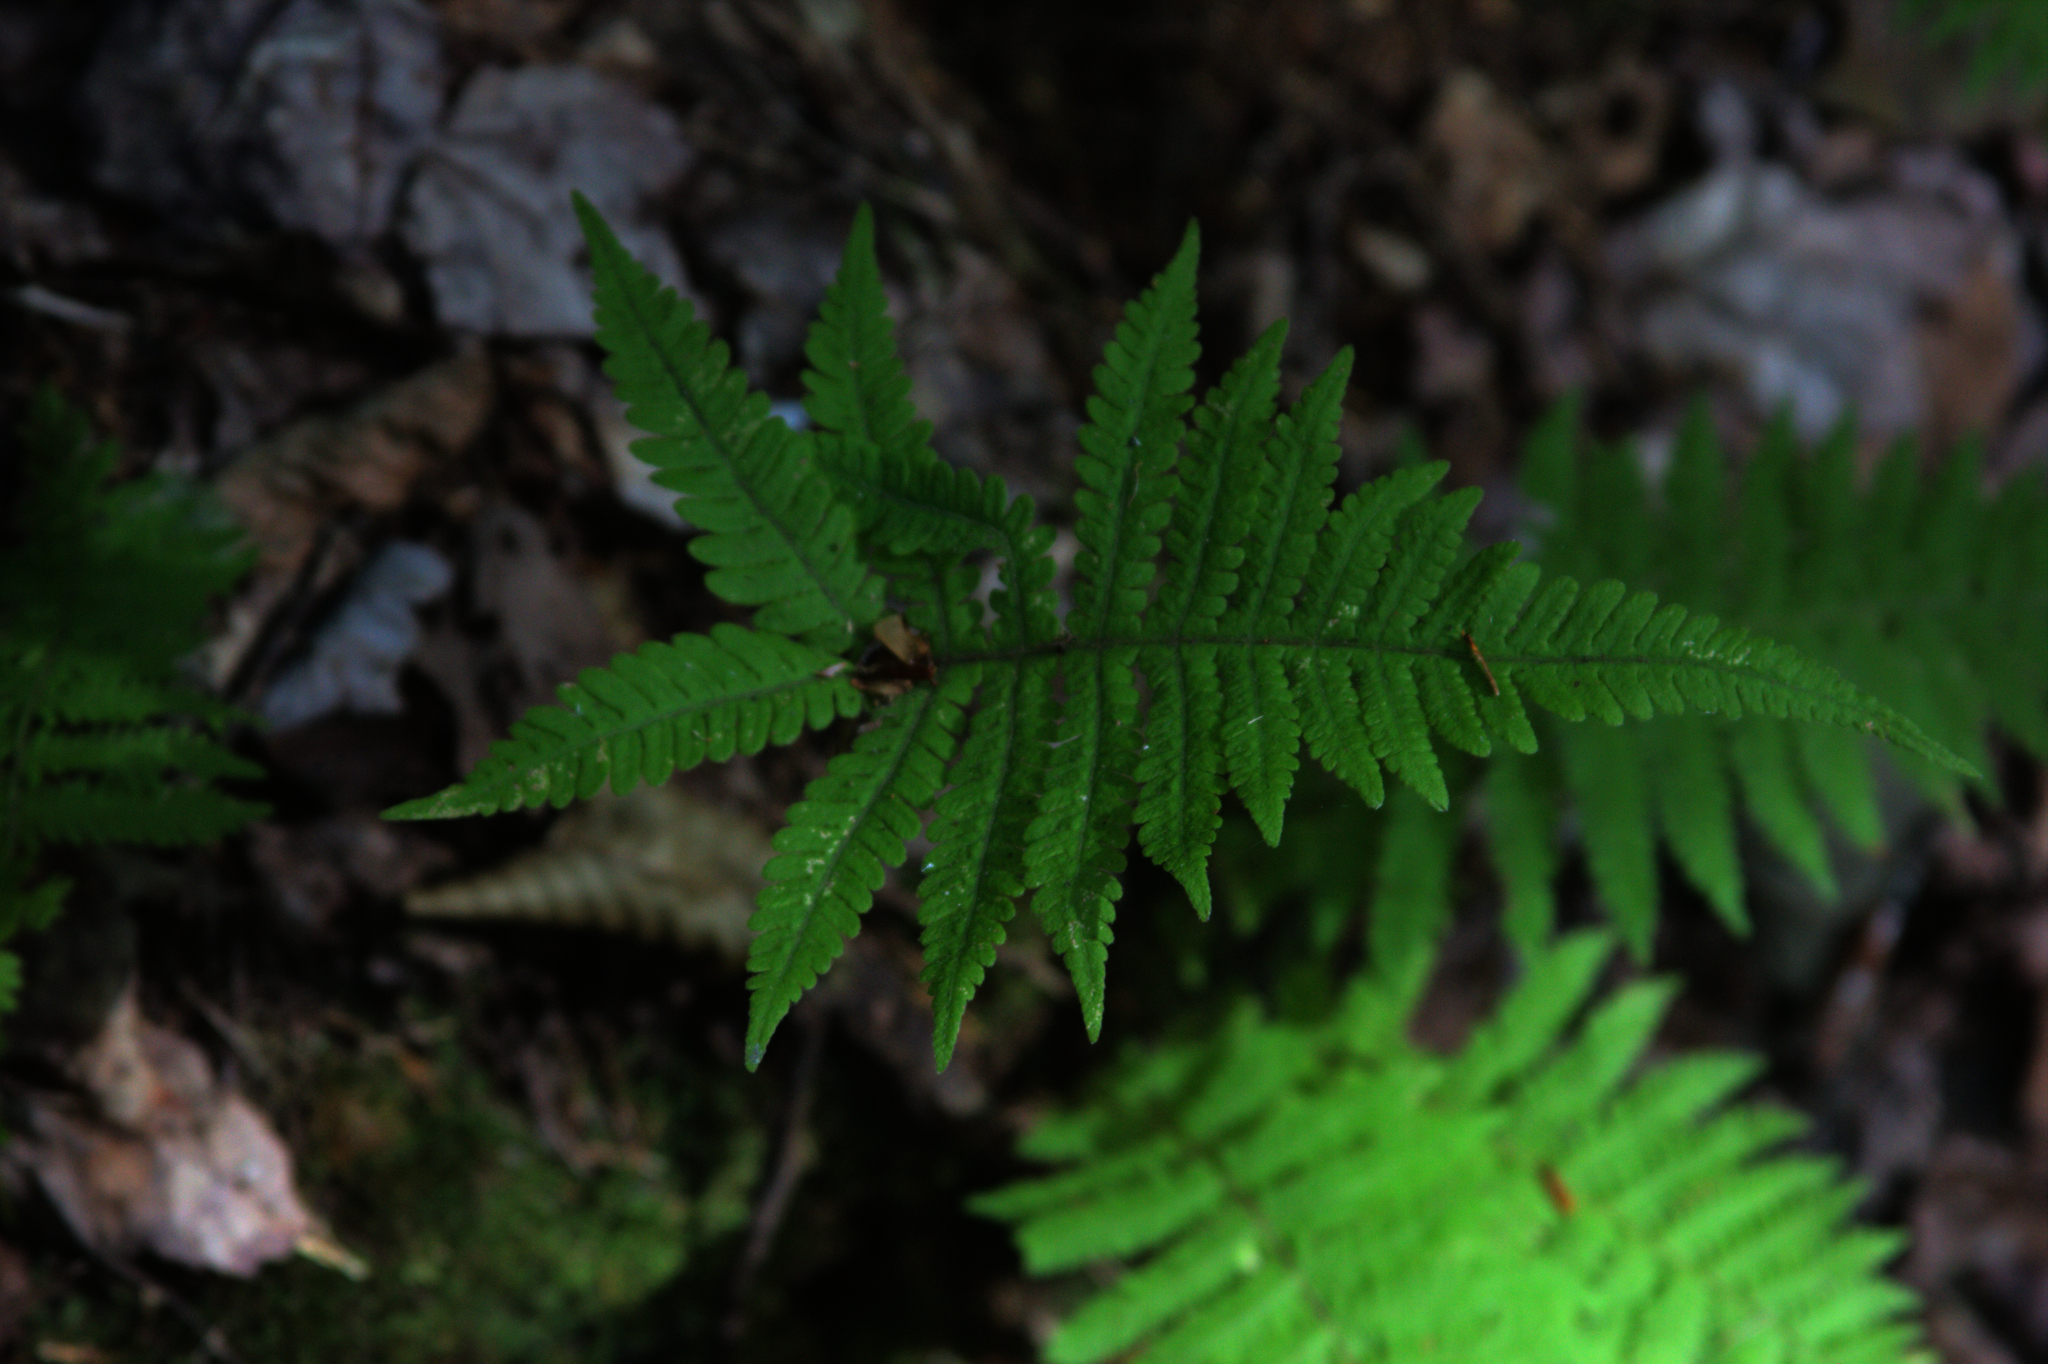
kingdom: Plantae
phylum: Tracheophyta
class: Polypodiopsida
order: Polypodiales
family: Thelypteridaceae
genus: Phegopteris
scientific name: Phegopteris connectilis
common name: Beech fern
